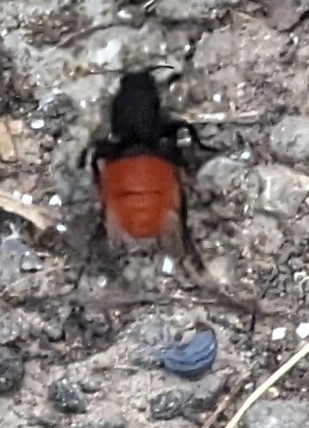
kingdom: Animalia
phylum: Arthropoda
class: Insecta
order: Hymenoptera
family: Mutillidae
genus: Dasymutilla
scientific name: Dasymutilla
